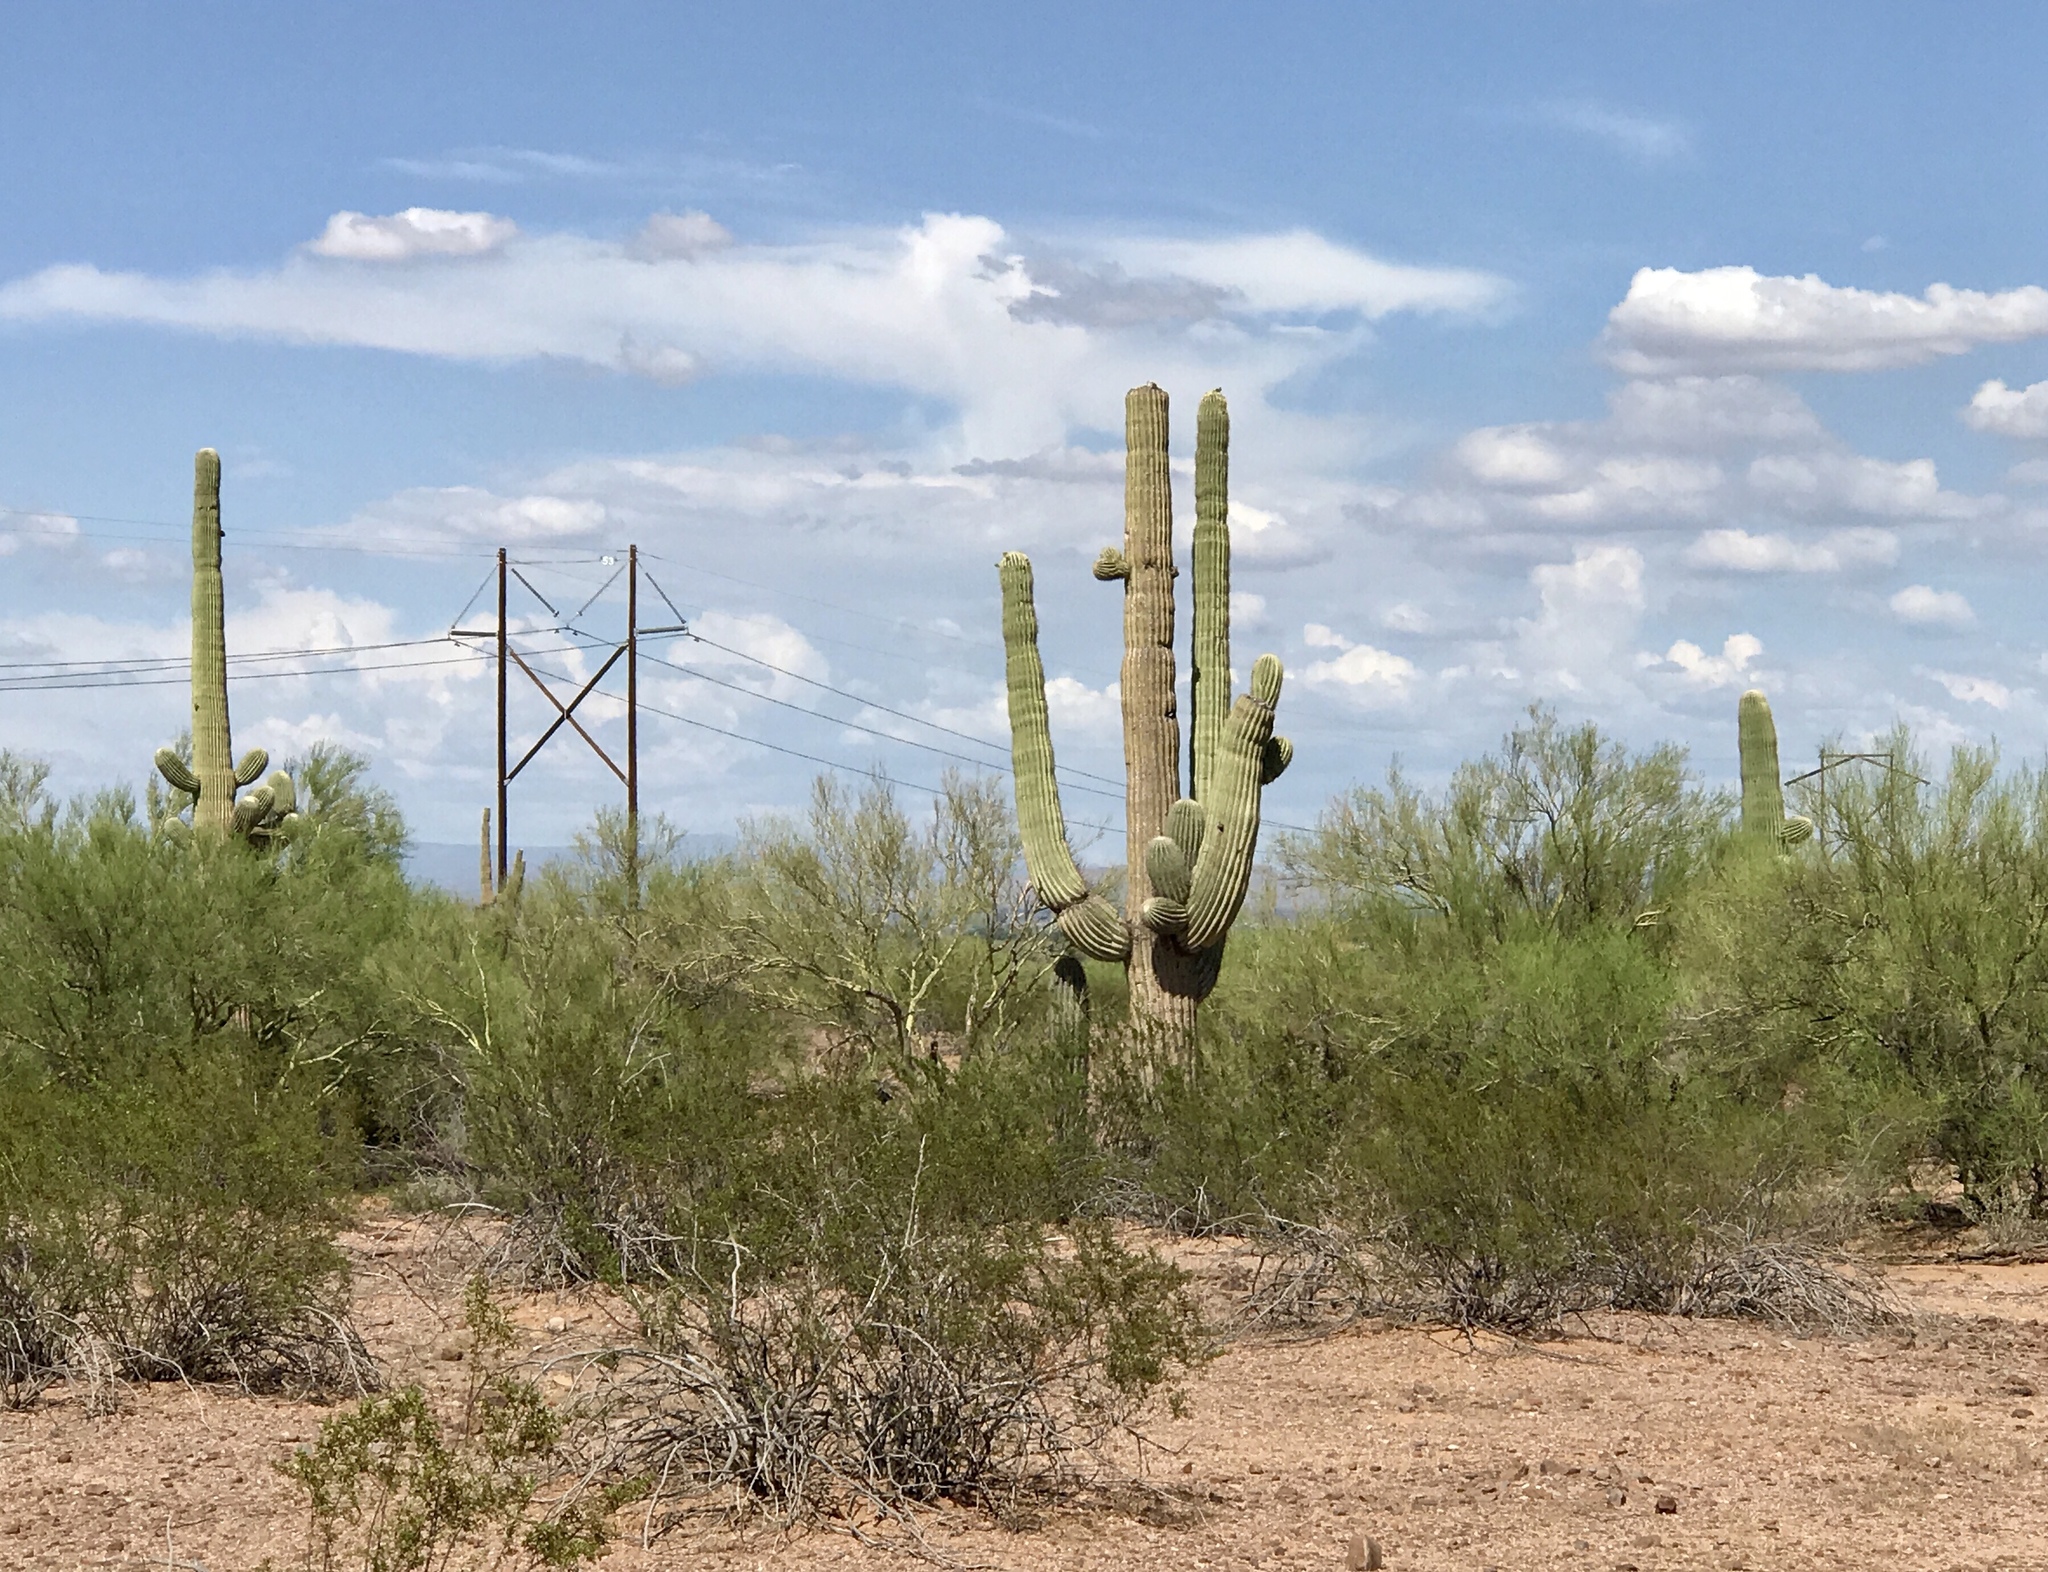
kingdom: Plantae
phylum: Tracheophyta
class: Magnoliopsida
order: Caryophyllales
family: Cactaceae
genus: Carnegiea
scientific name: Carnegiea gigantea
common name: Saguaro
